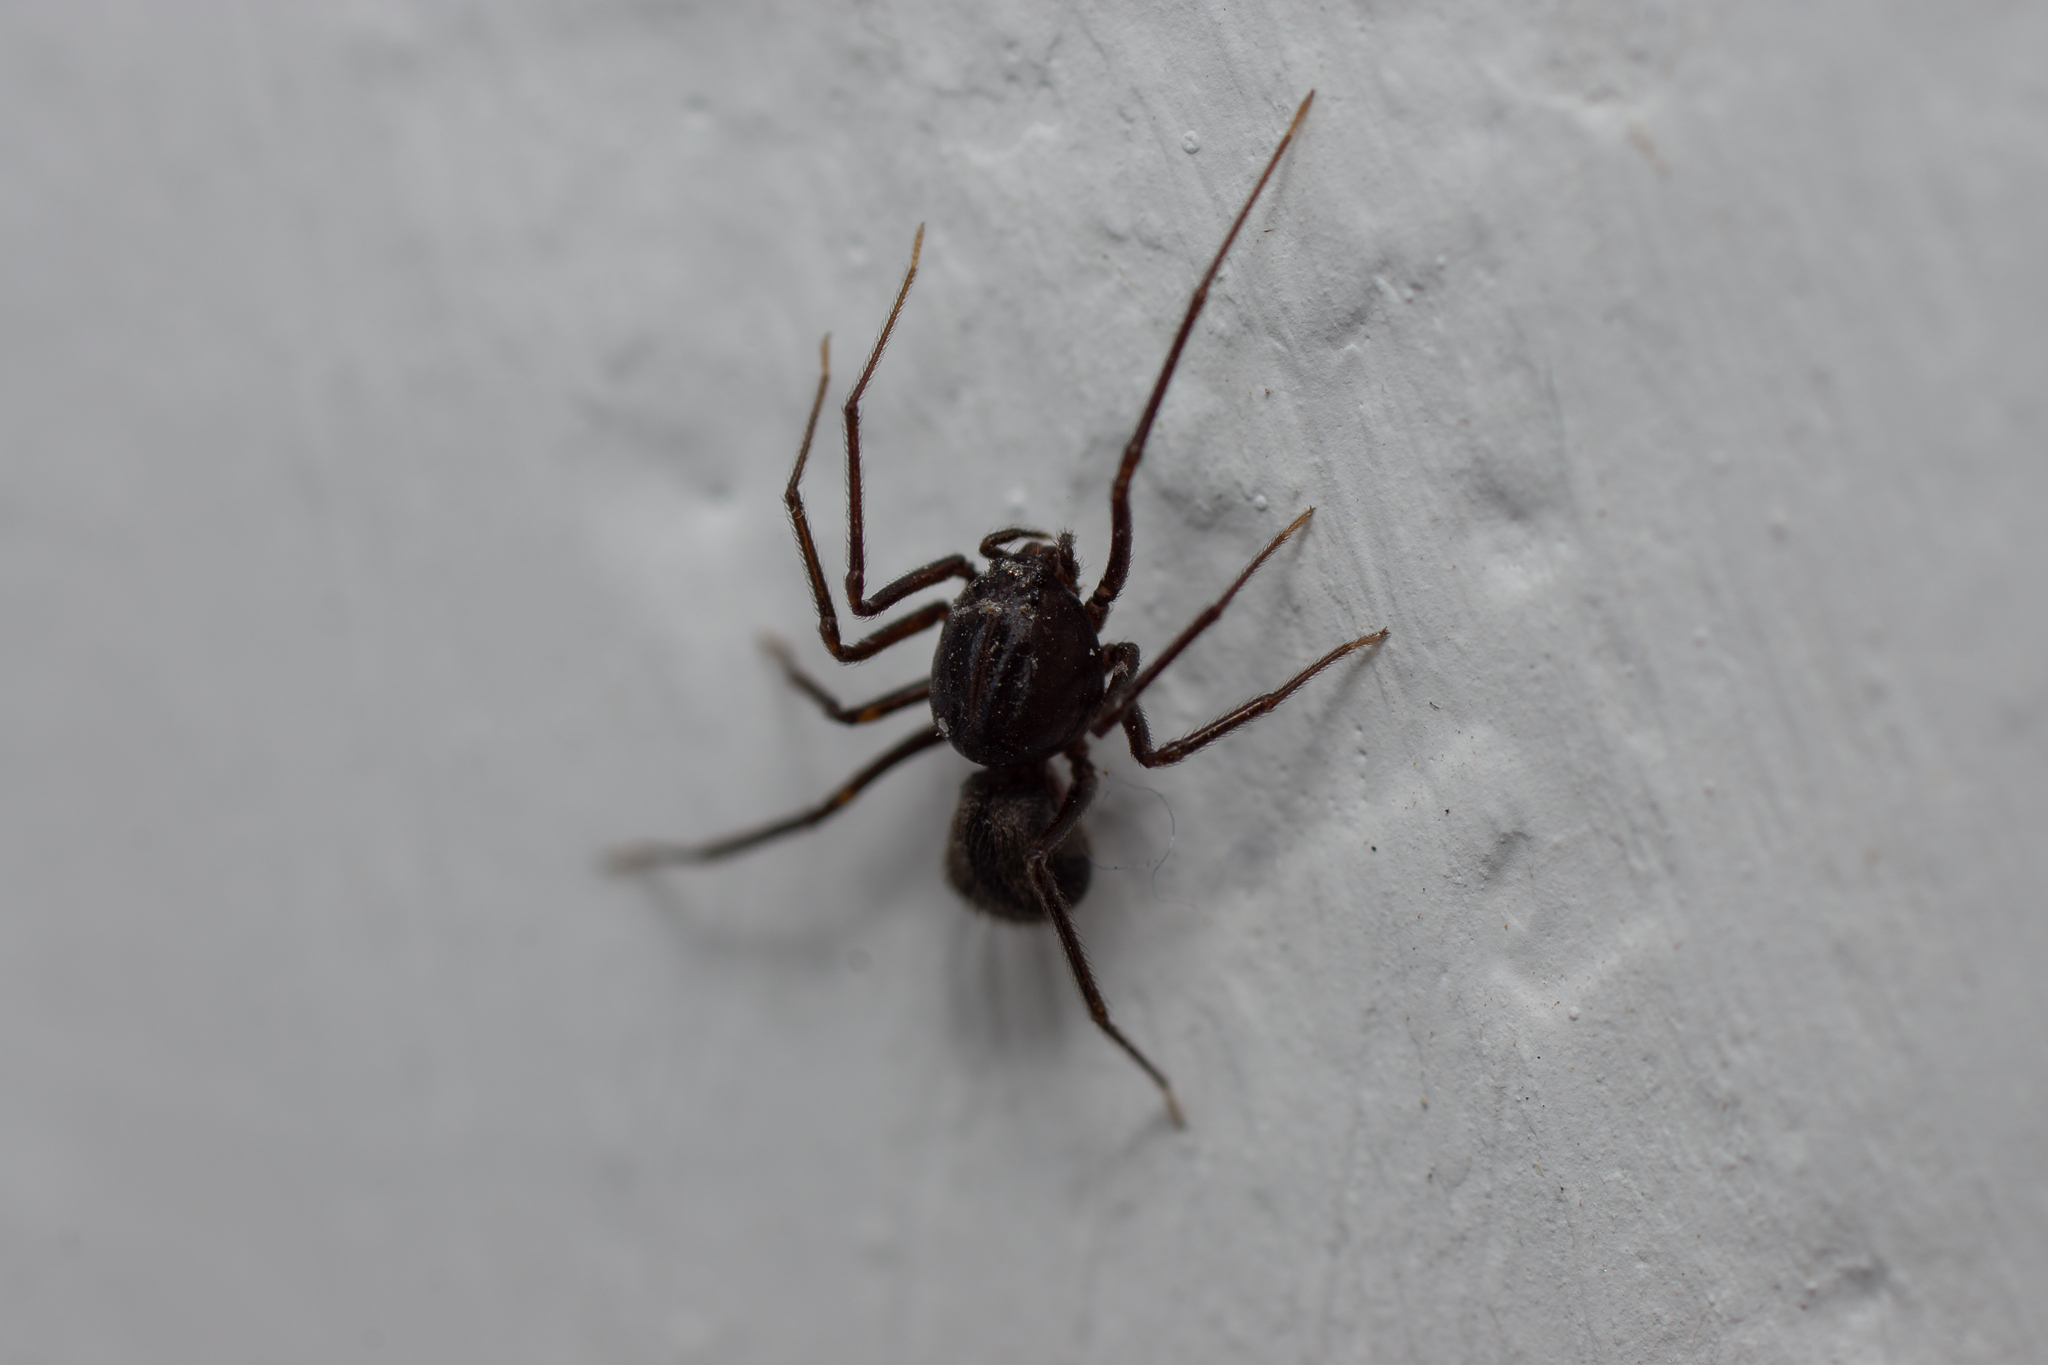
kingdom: Animalia
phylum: Arthropoda
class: Arachnida
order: Araneae
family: Scytodidae
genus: Scytodes
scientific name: Scytodes velutina
